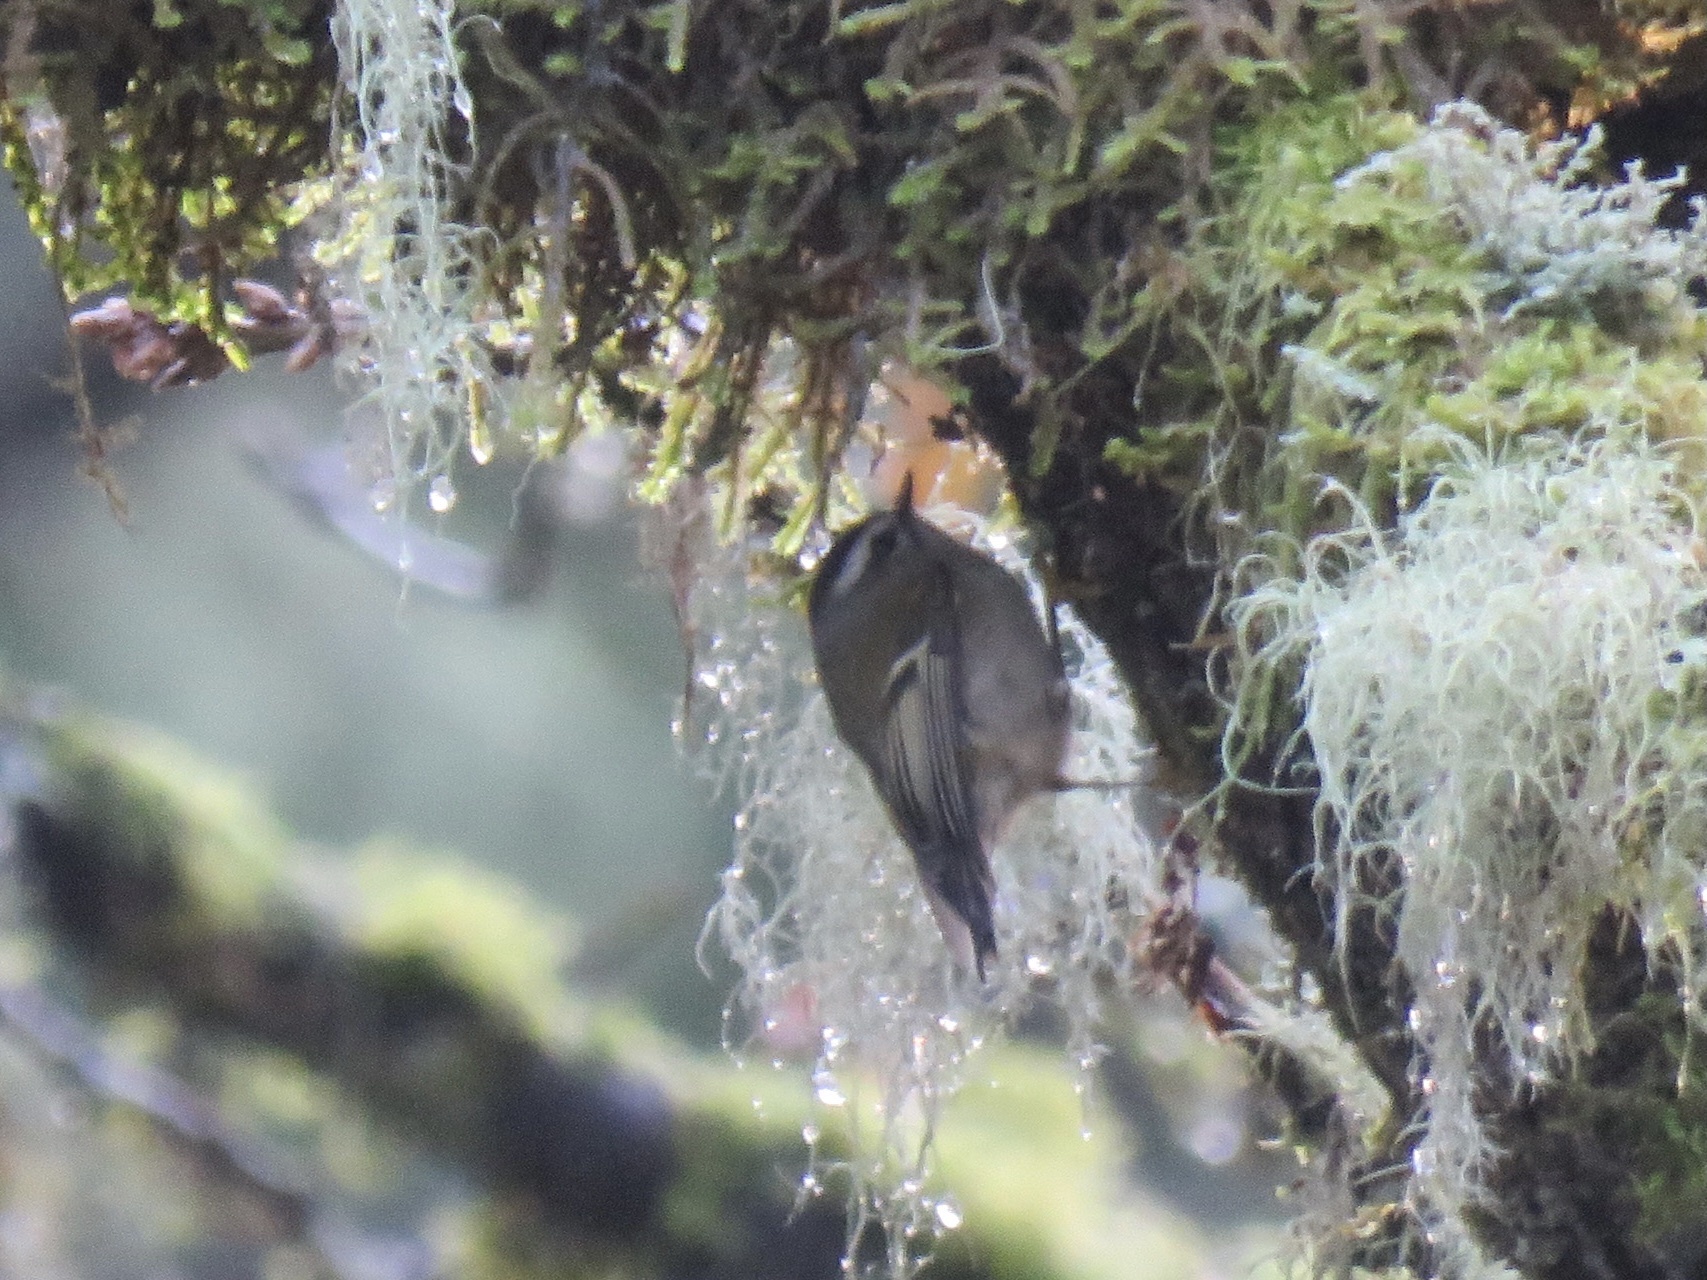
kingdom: Animalia
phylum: Chordata
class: Aves
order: Passeriformes
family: Regulidae
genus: Regulus
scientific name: Regulus satrapa
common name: Golden-crowned kinglet
